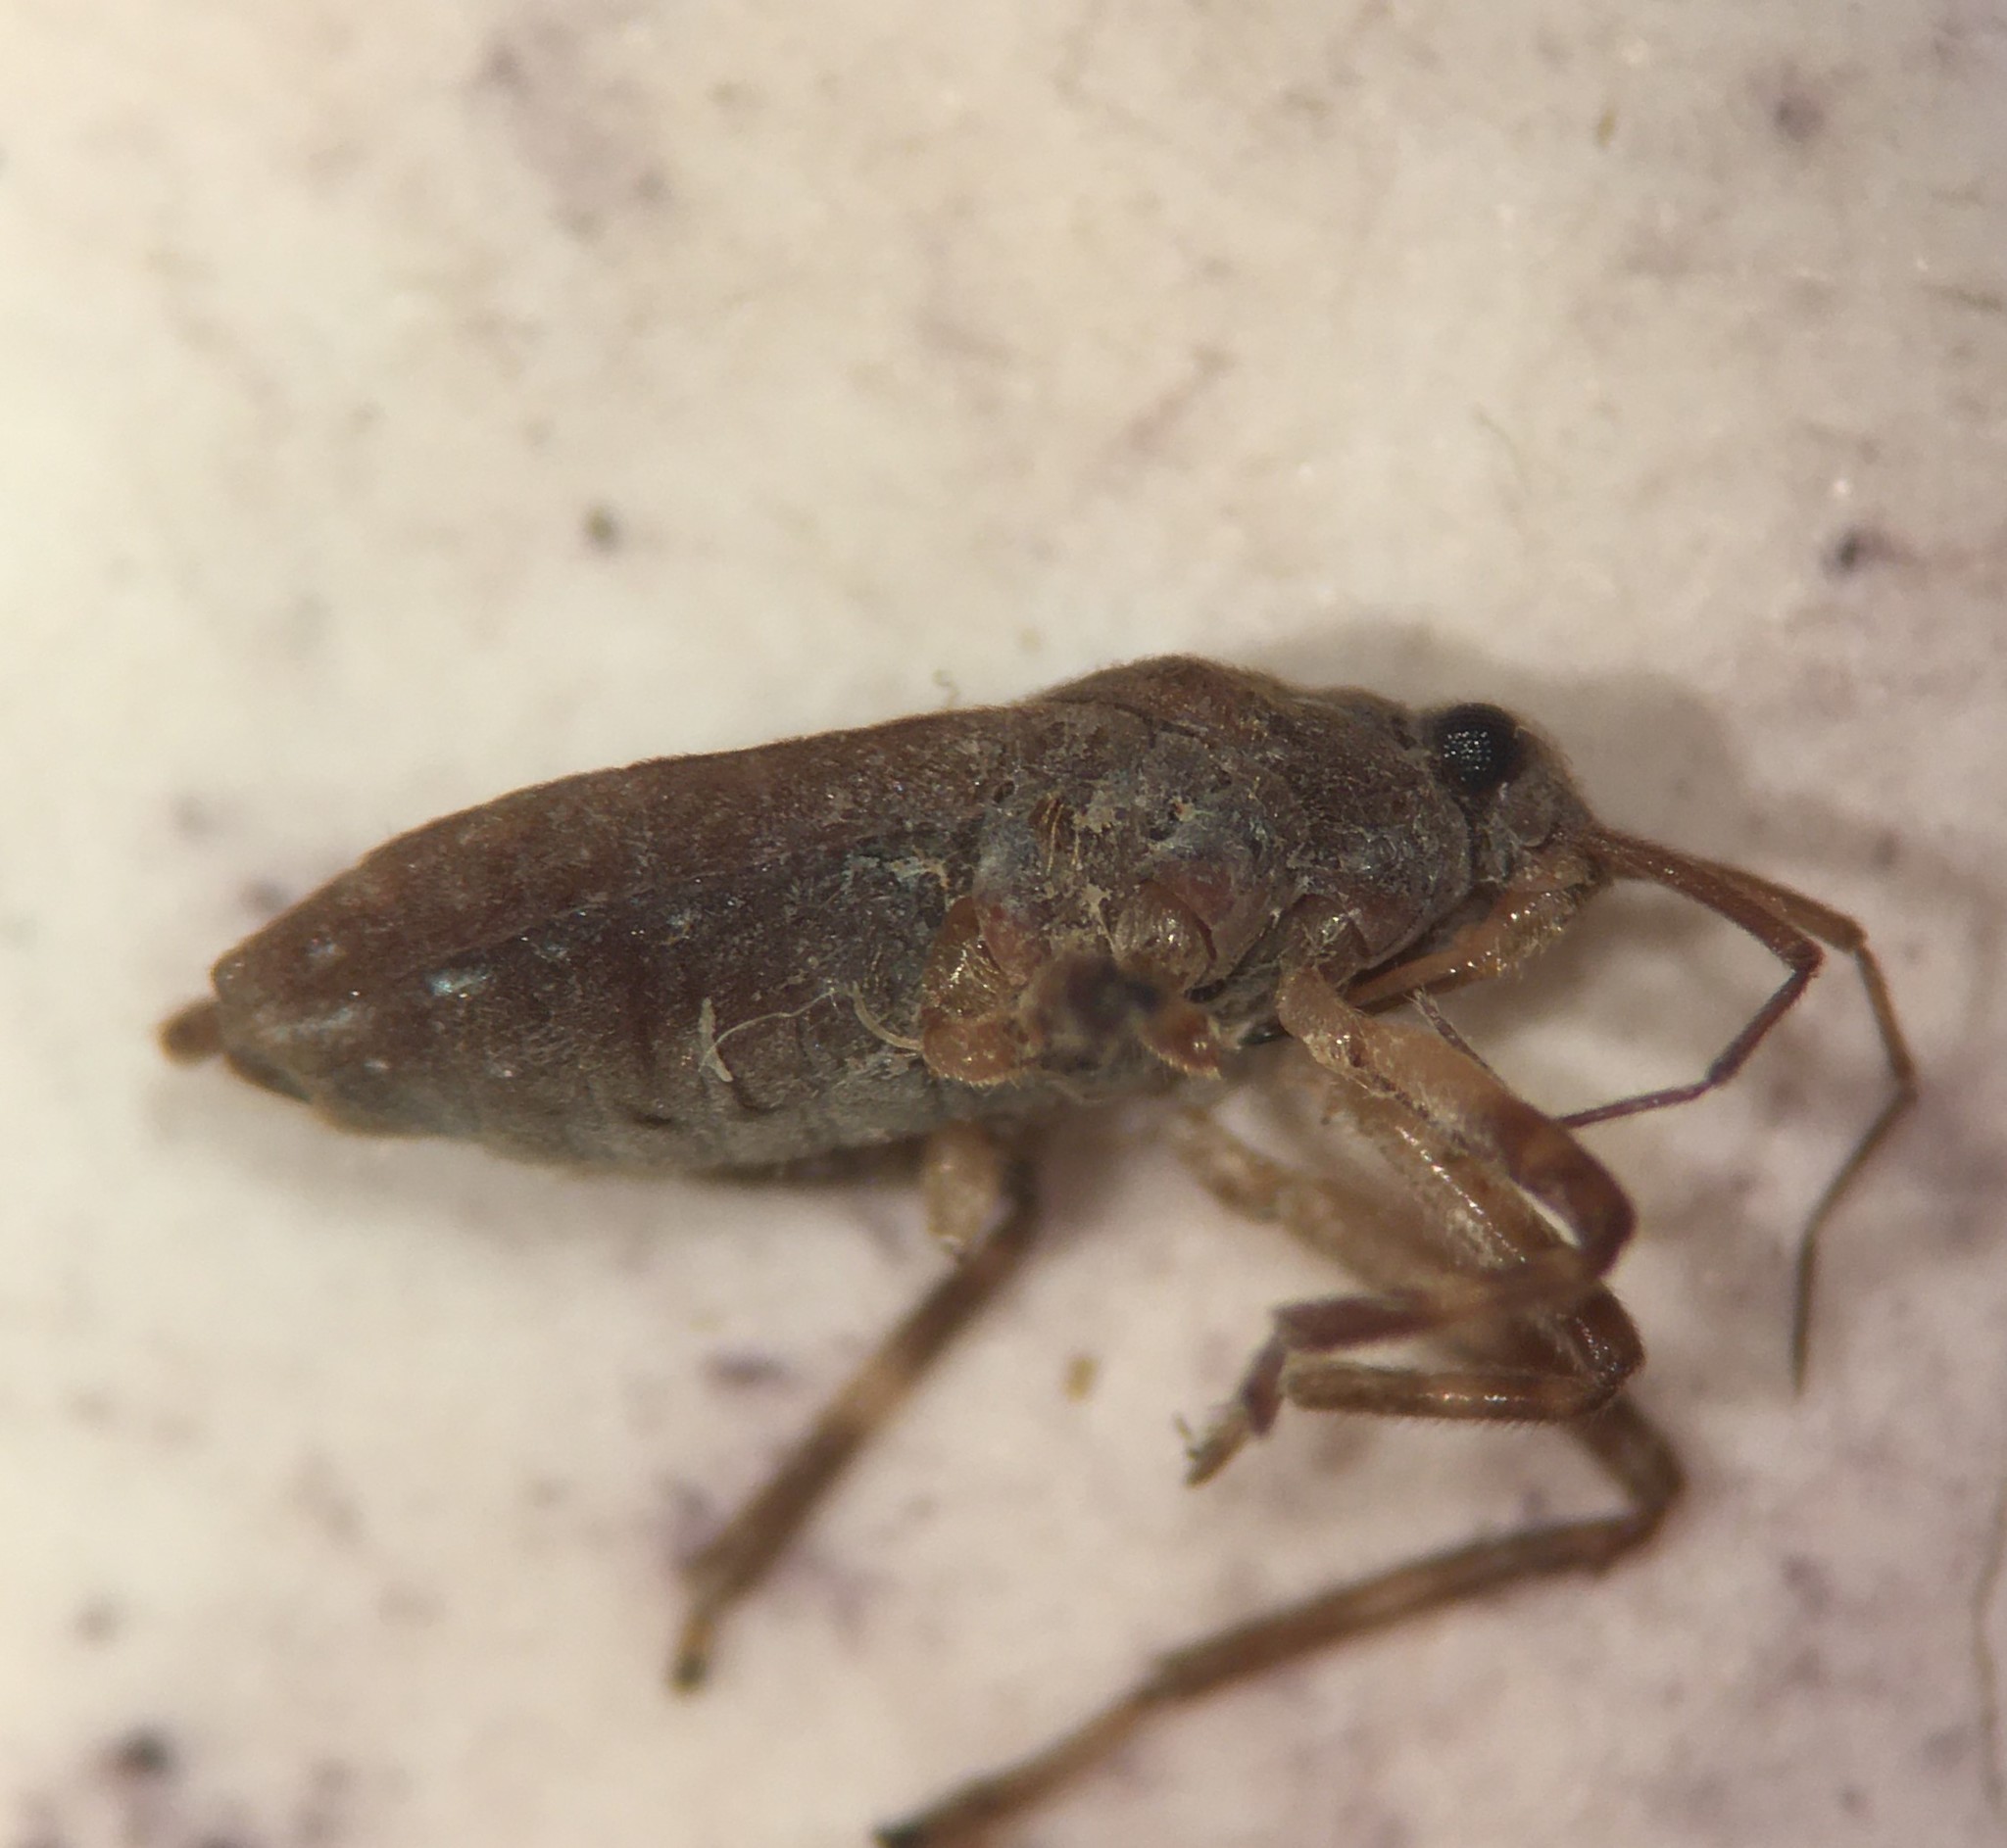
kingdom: Animalia
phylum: Arthropoda
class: Insecta
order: Hemiptera
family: Veliidae
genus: Platyvelia
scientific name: Platyvelia brachialis
